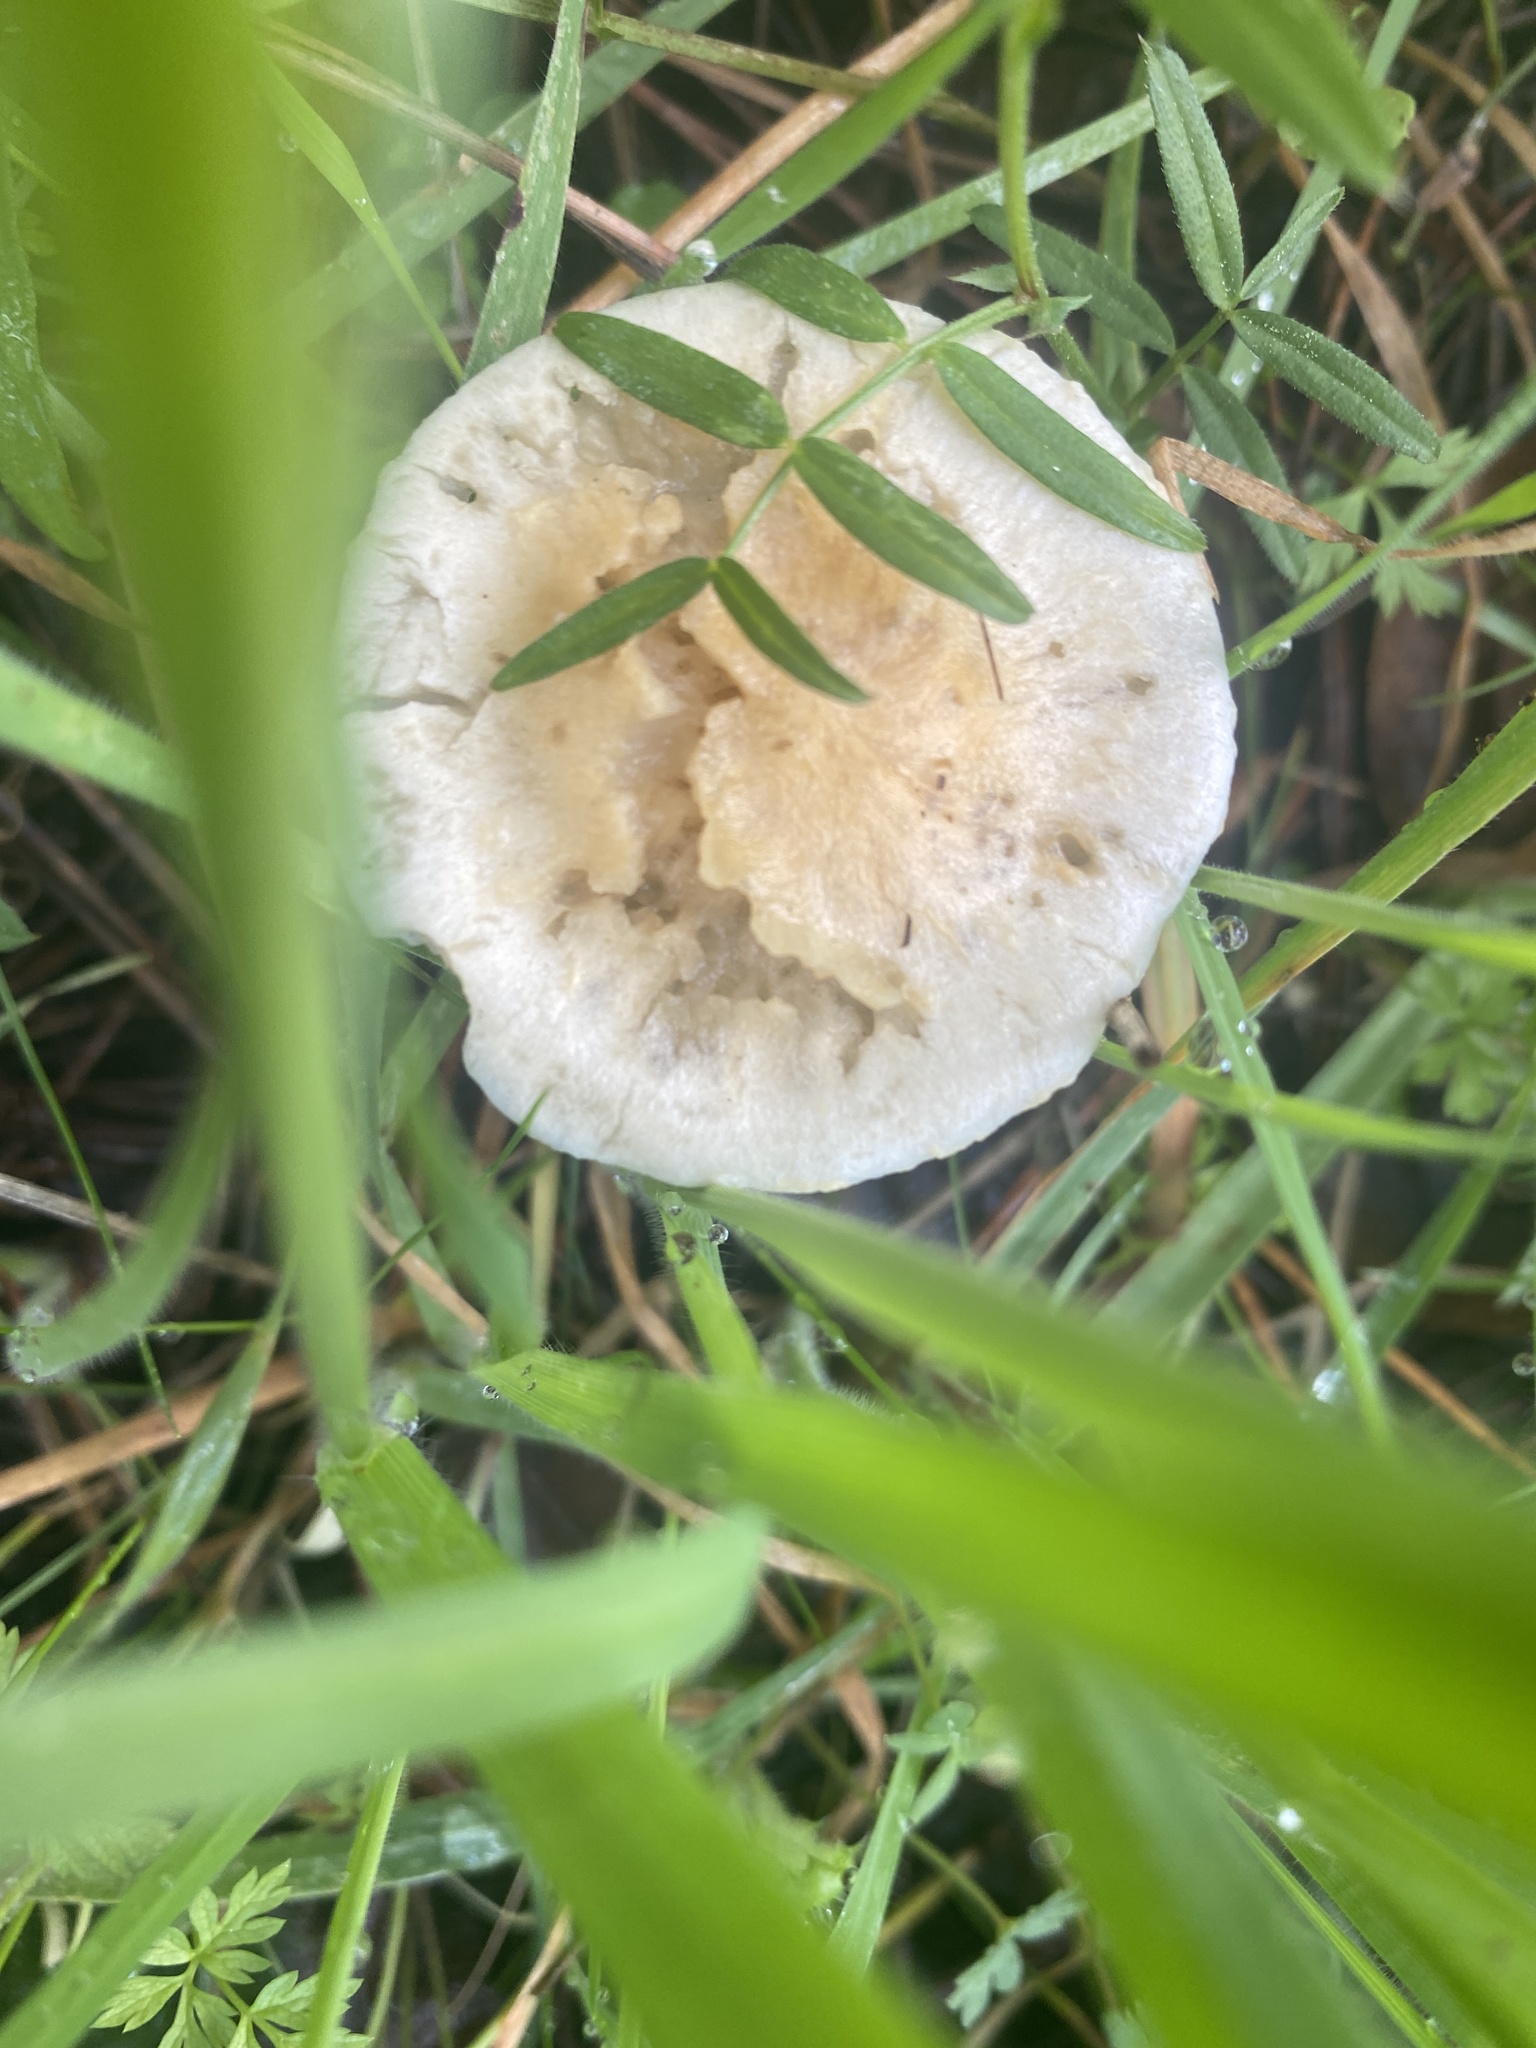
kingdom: Fungi
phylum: Basidiomycota
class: Agaricomycetes
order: Agaricales
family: Strophariaceae
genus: Leratiomyces
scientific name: Leratiomyces percevalii
